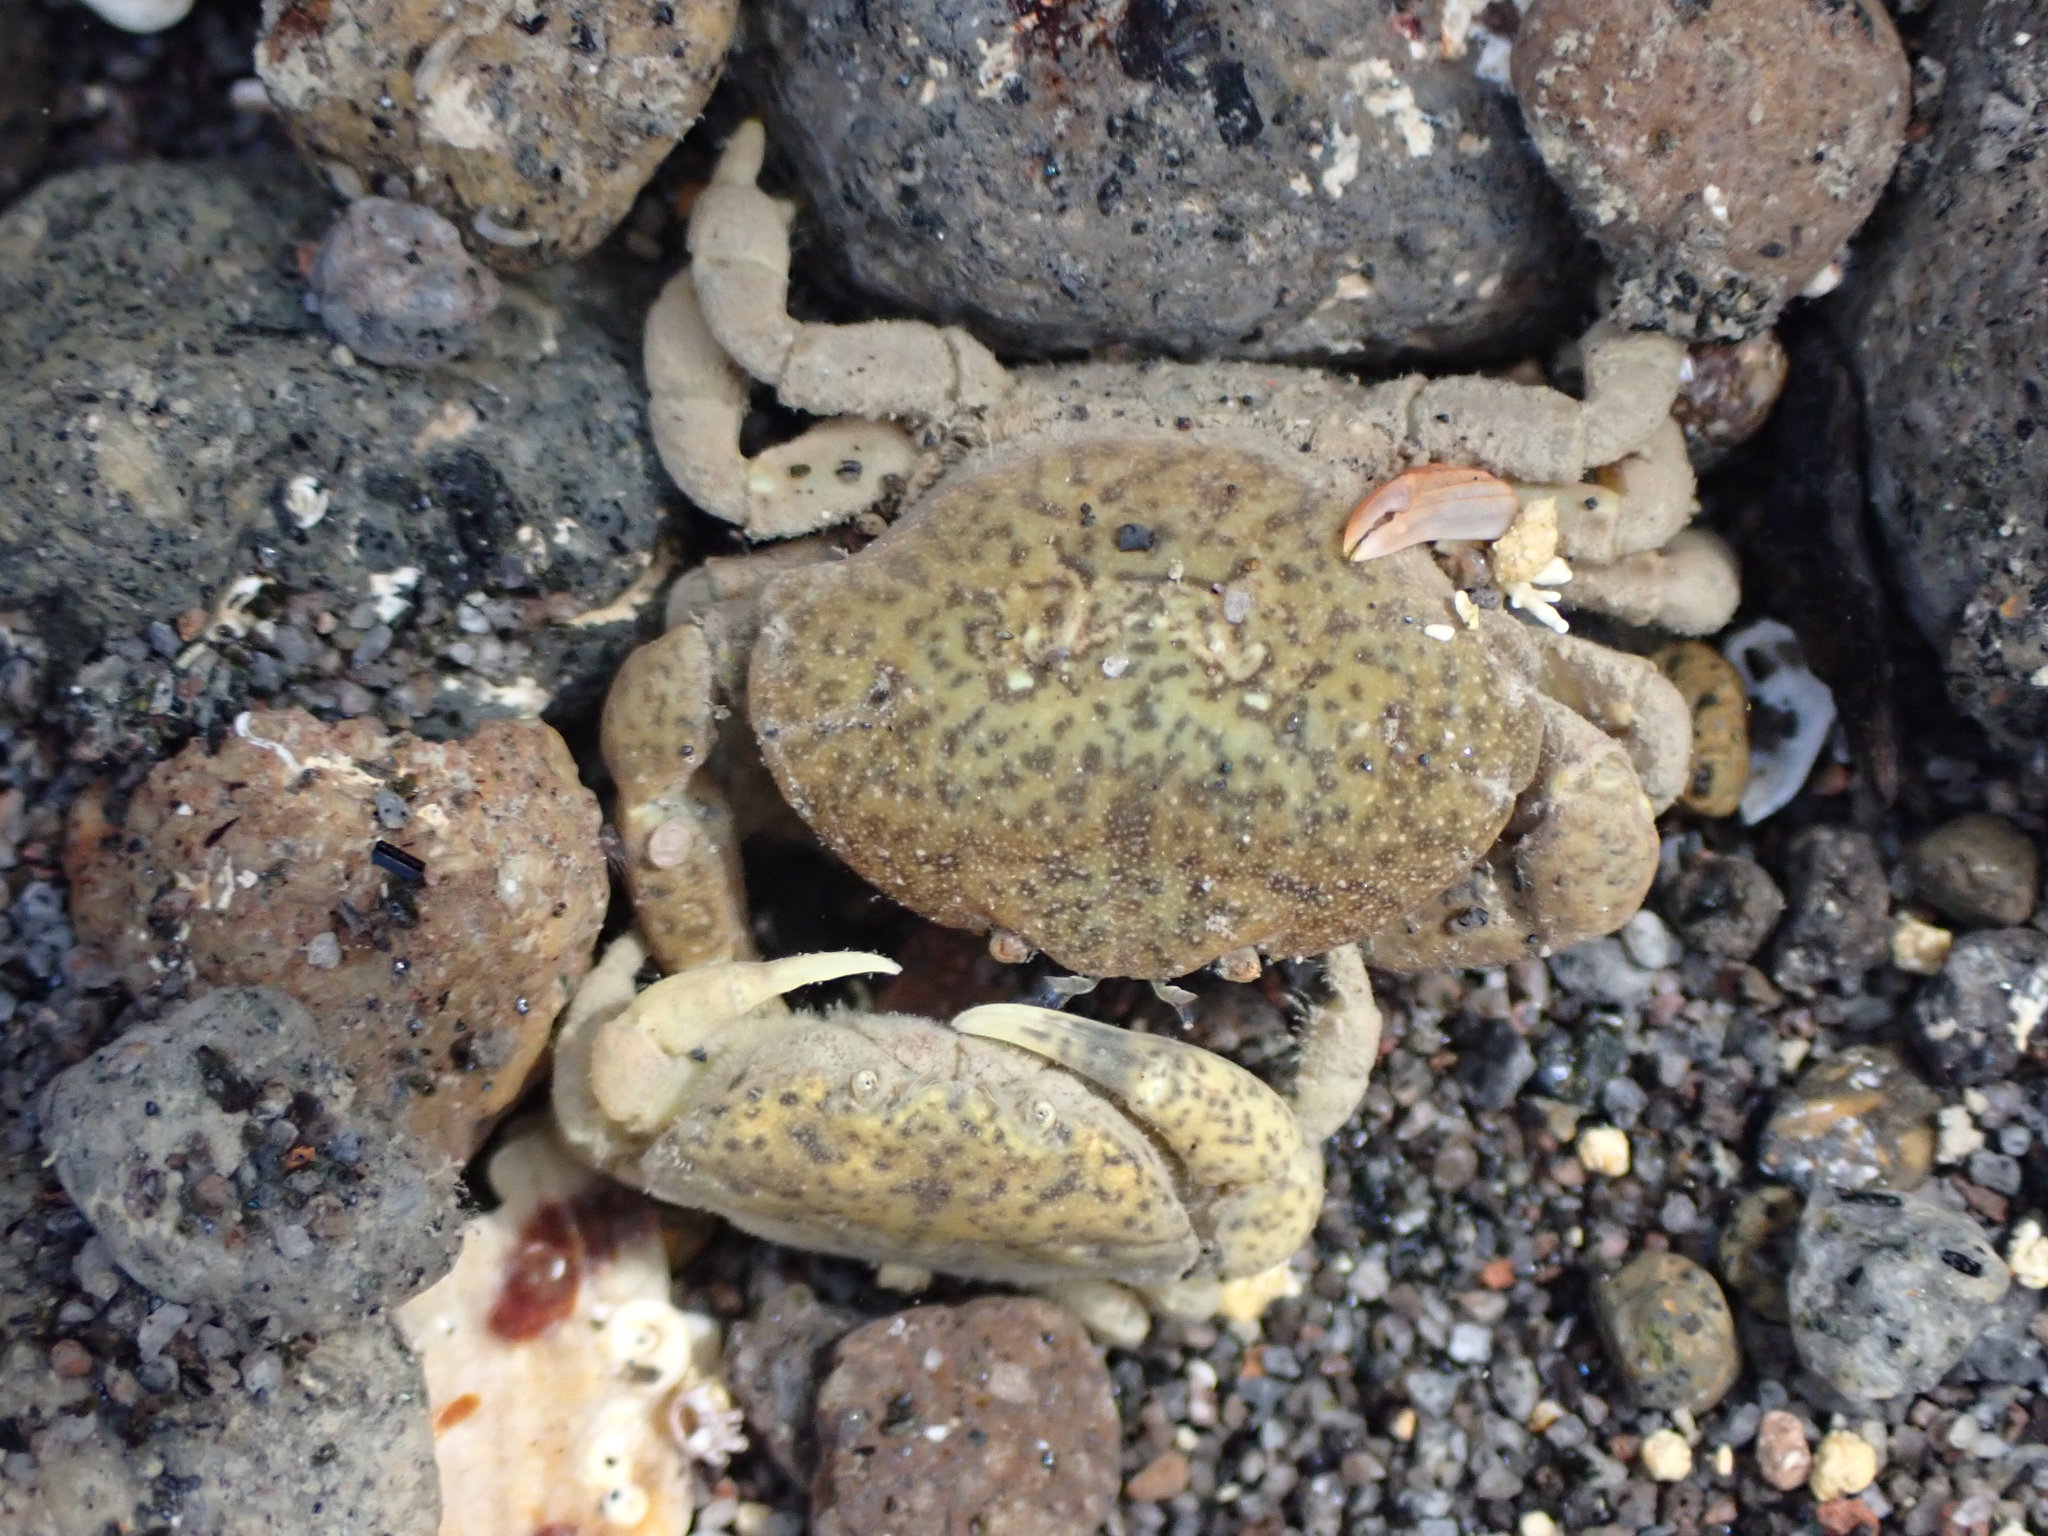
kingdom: Animalia
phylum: Arthropoda
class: Malacostraca
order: Decapoda
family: Heteroziidae
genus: Heterozius
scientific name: Heterozius rotundifrons
